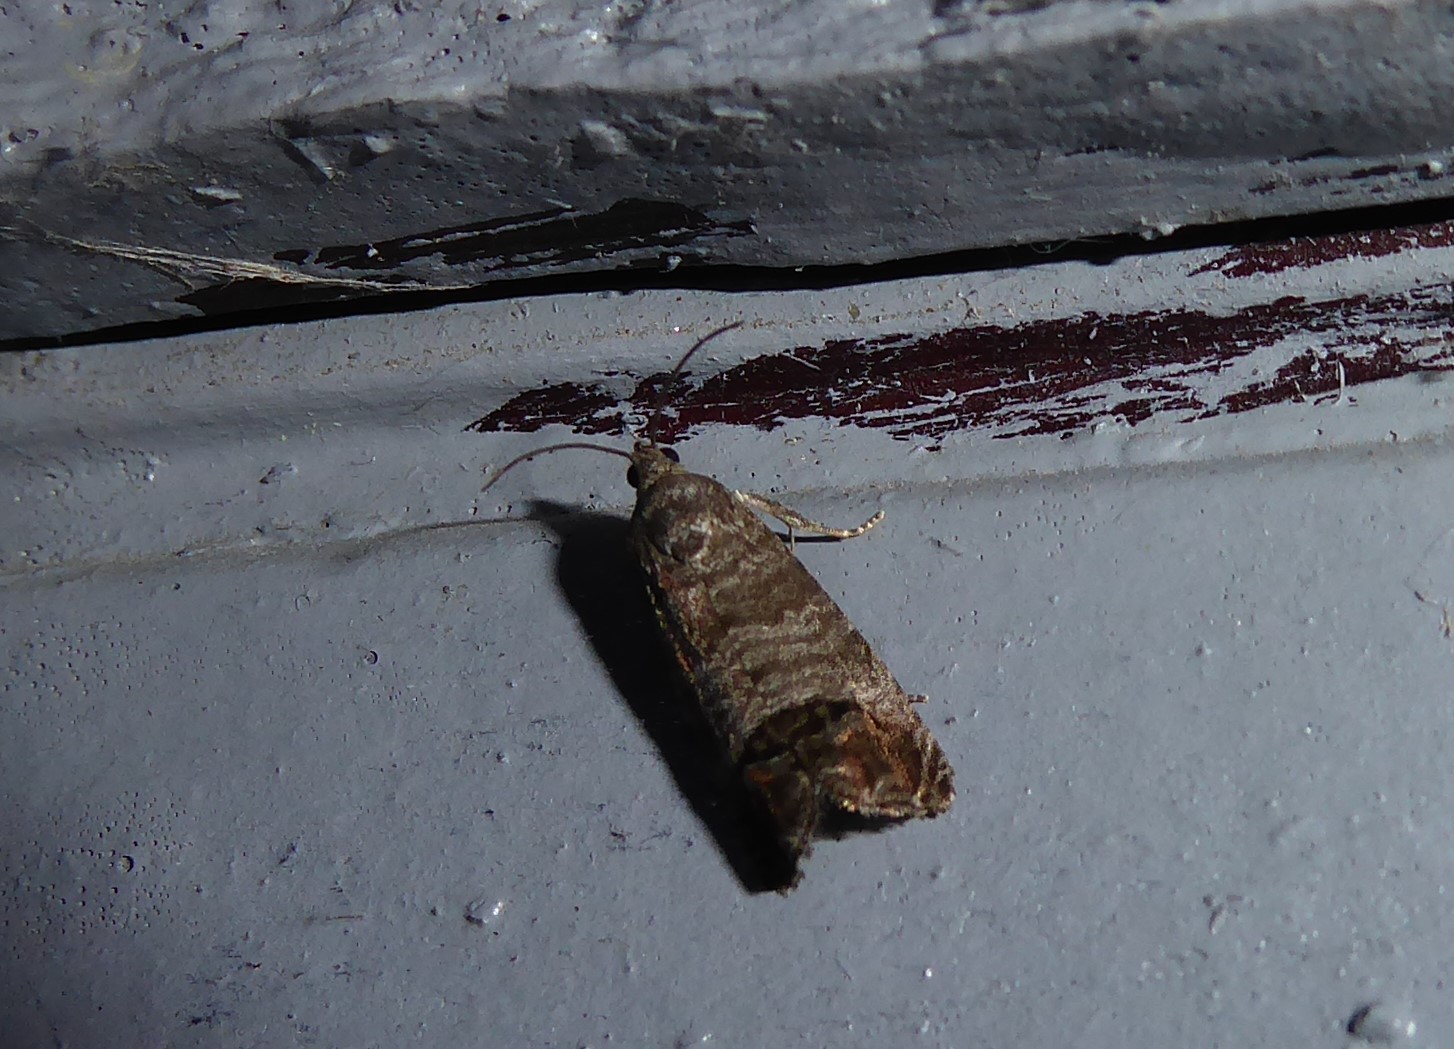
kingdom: Animalia
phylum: Arthropoda
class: Insecta
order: Lepidoptera
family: Tortricidae
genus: Cydia
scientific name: Cydia pomonella
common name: Codling moth
